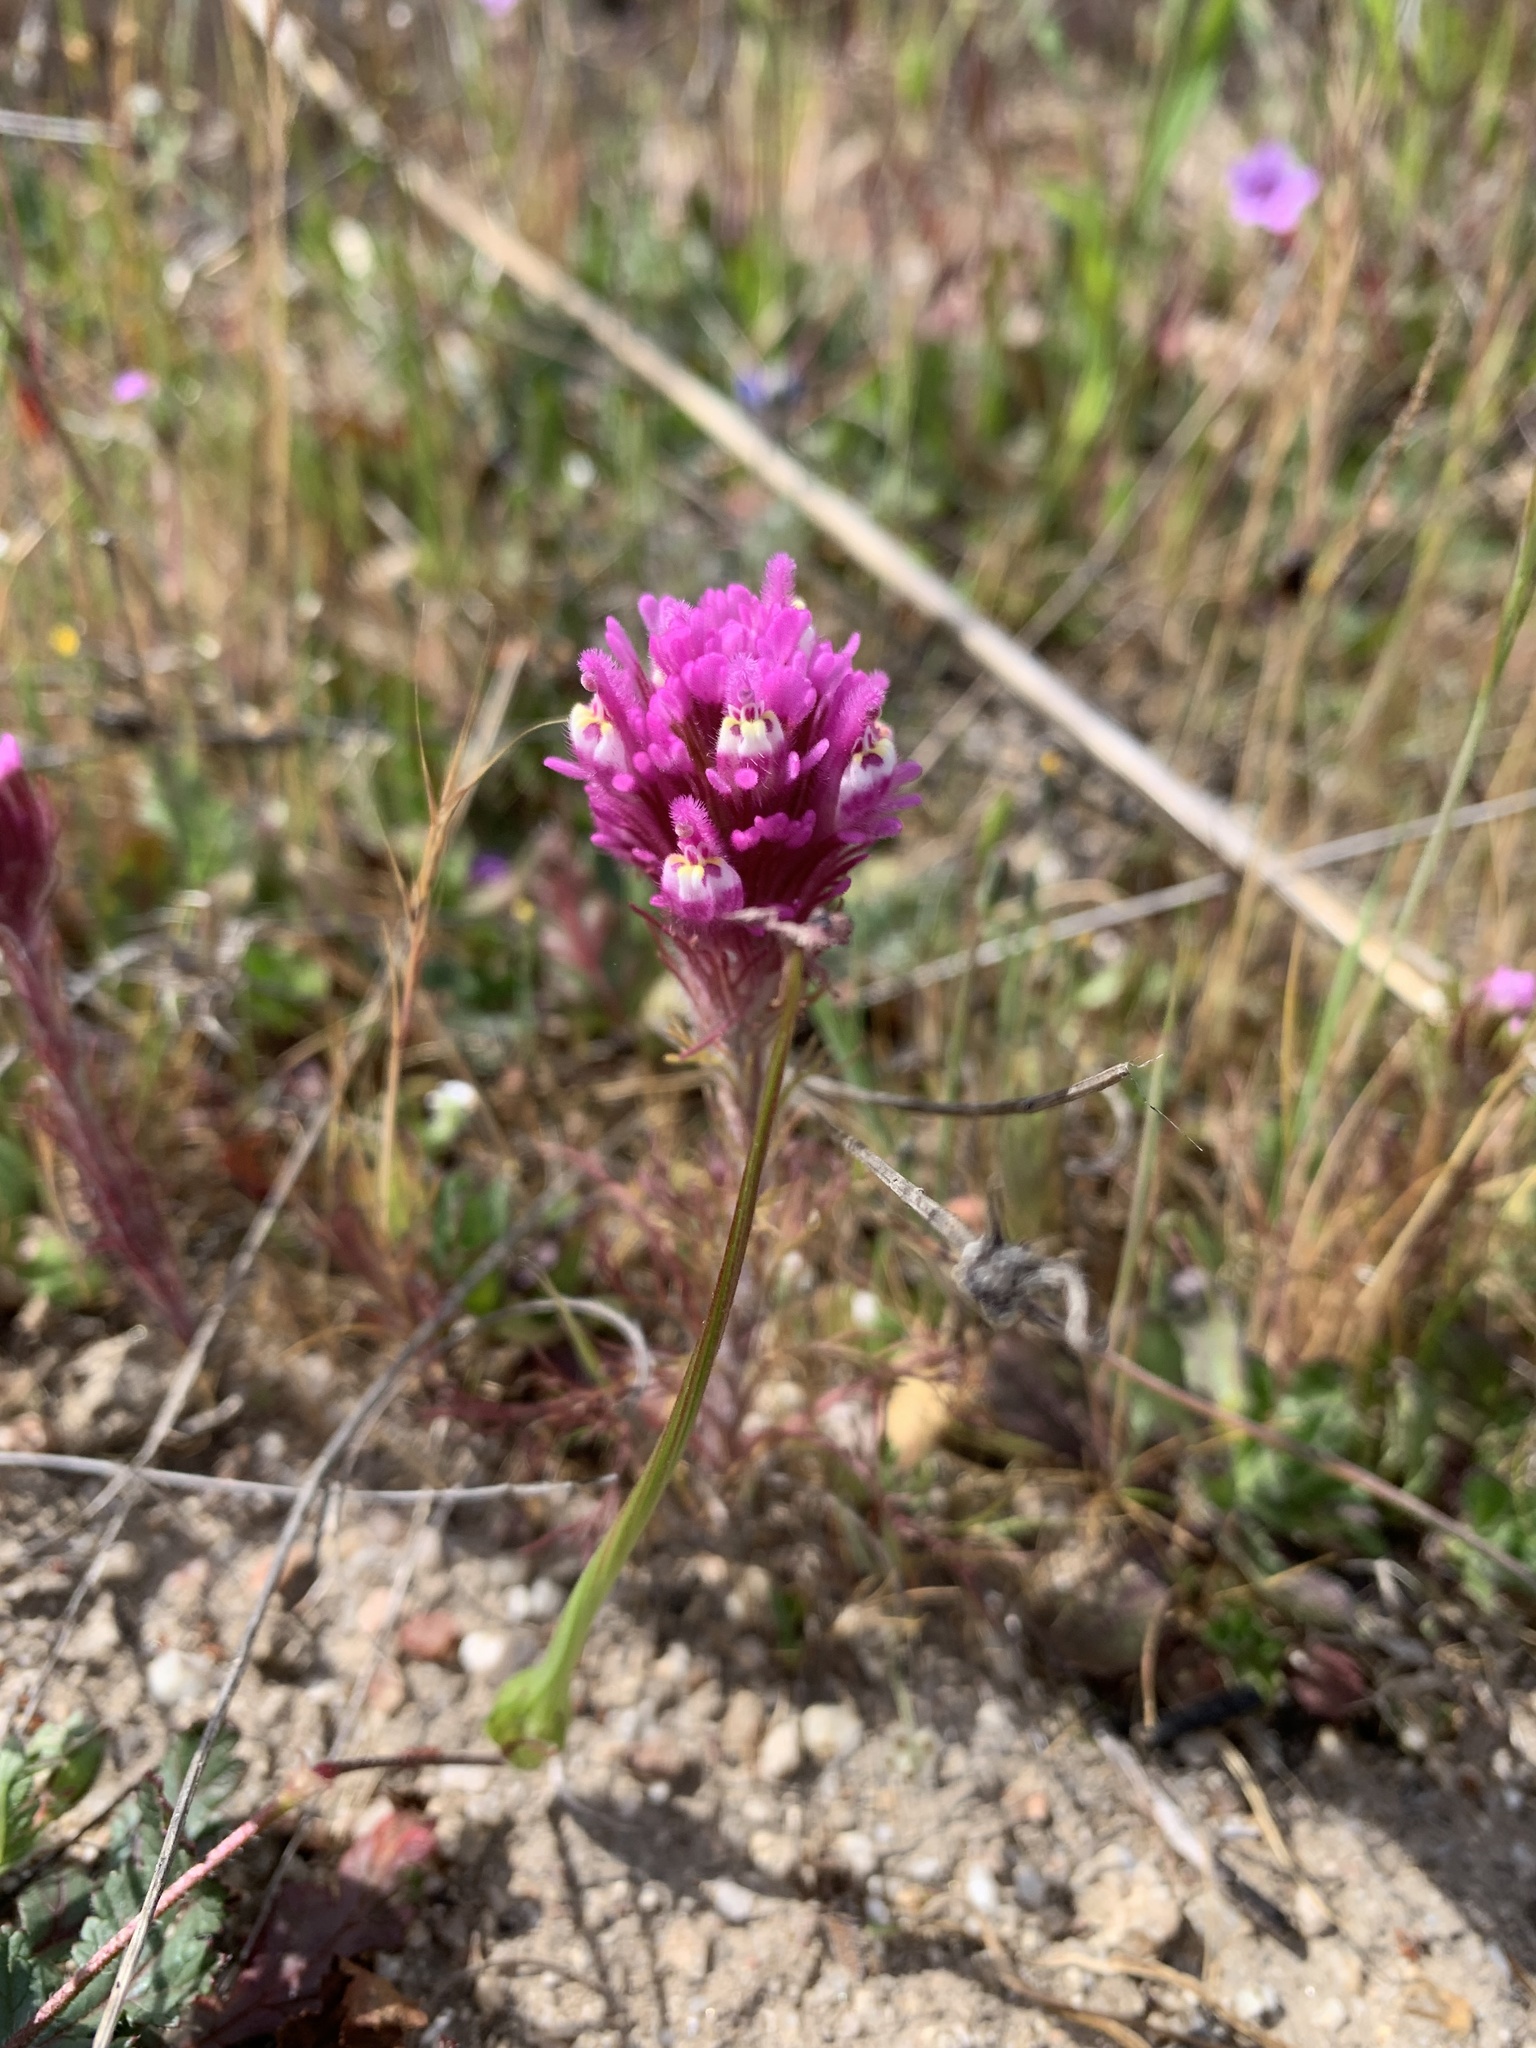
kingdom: Plantae
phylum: Tracheophyta
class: Magnoliopsida
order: Lamiales
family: Orobanchaceae
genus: Castilleja
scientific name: Castilleja exserta
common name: Purple owl-clover
